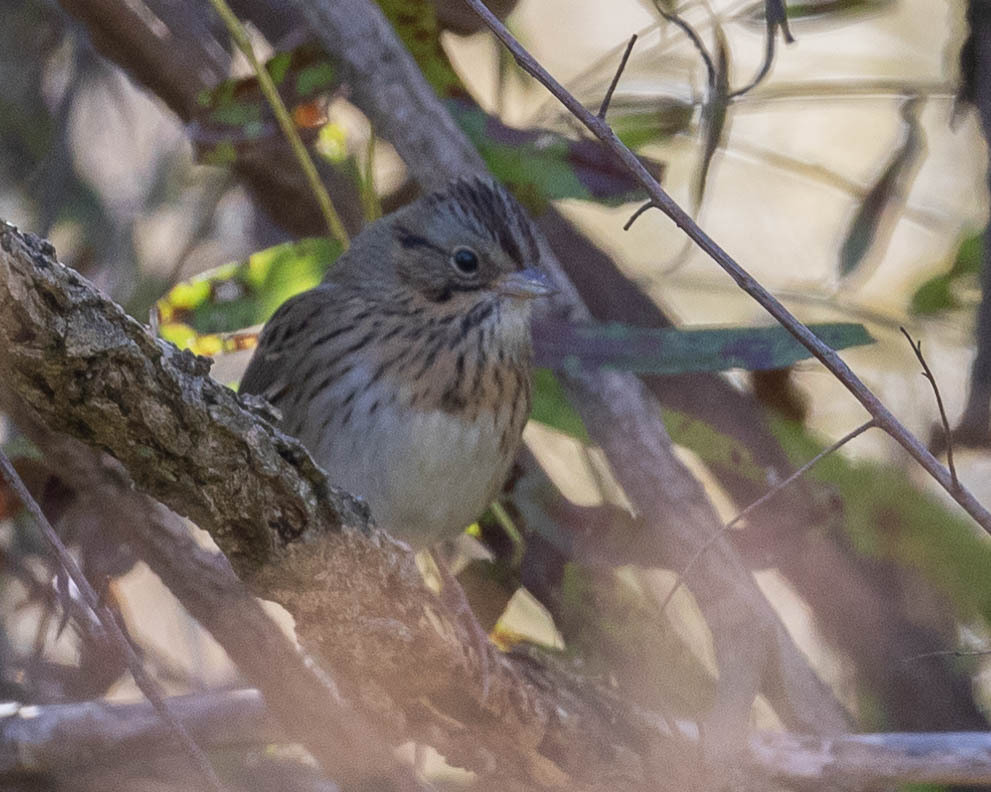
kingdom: Animalia
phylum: Chordata
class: Aves
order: Passeriformes
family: Passerellidae
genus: Melospiza
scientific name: Melospiza lincolnii
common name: Lincoln's sparrow
